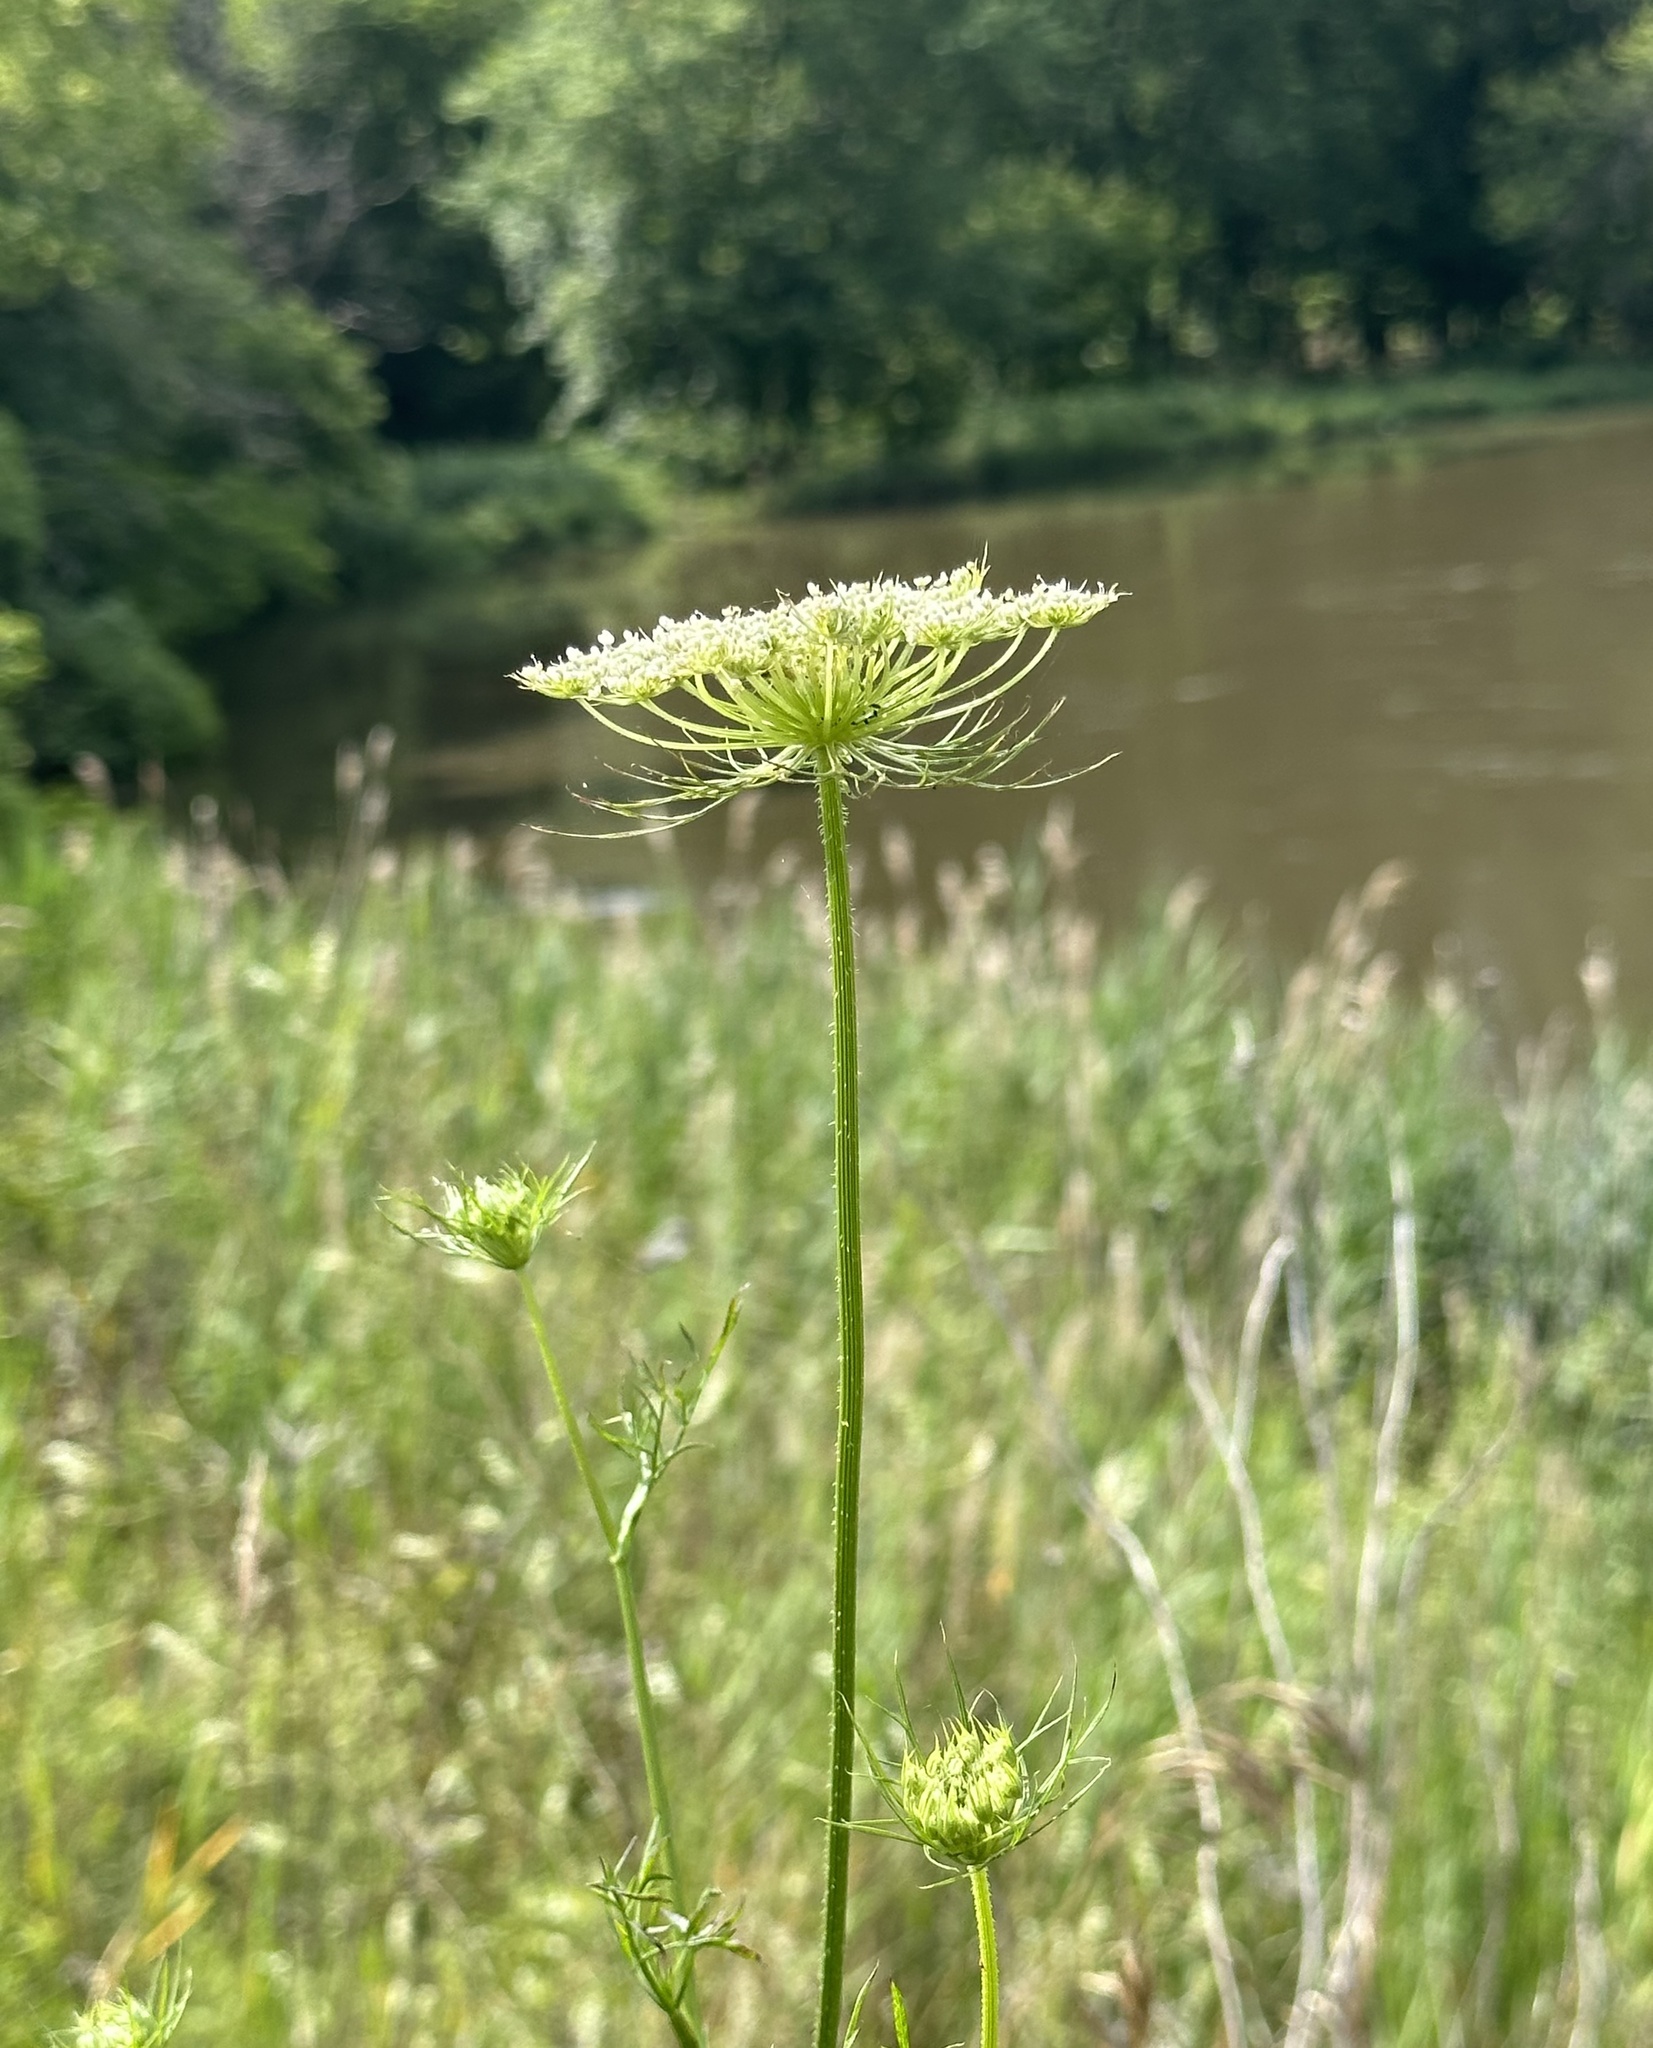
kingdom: Plantae
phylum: Tracheophyta
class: Magnoliopsida
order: Apiales
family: Apiaceae
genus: Daucus
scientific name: Daucus carota
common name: Wild carrot
